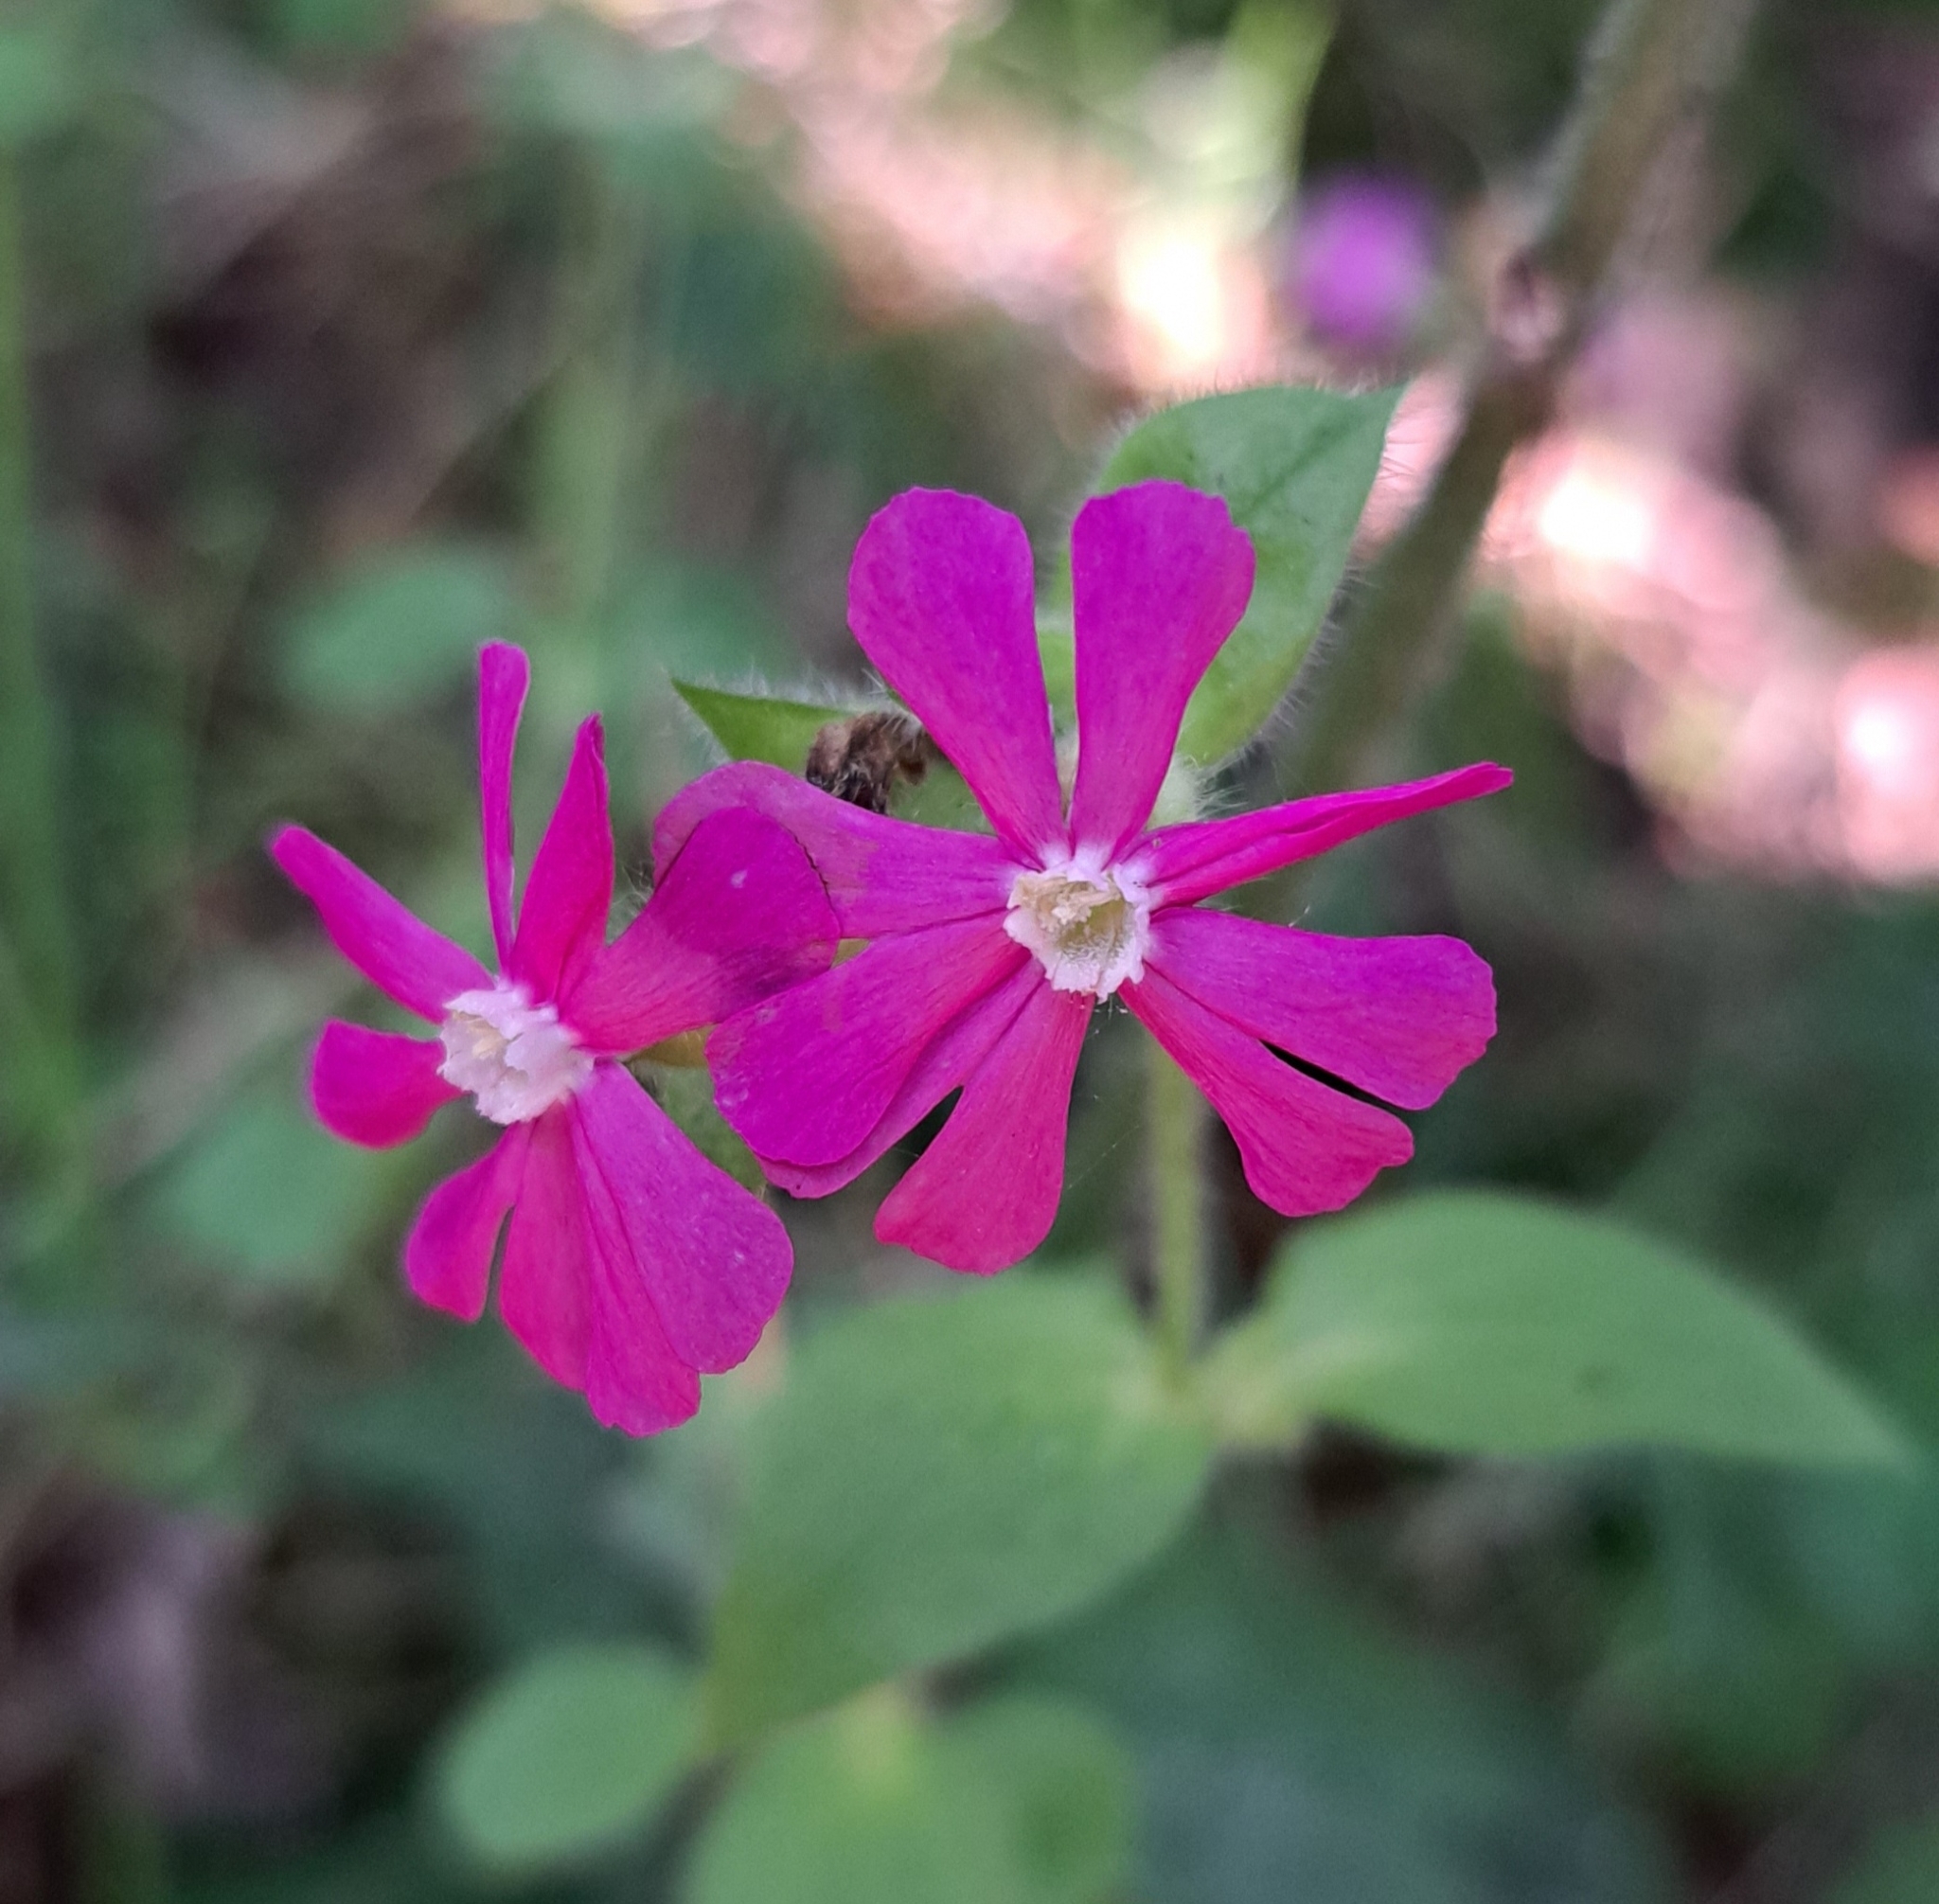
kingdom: Plantae
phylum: Tracheophyta
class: Magnoliopsida
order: Caryophyllales
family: Caryophyllaceae
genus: Silene
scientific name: Silene dioica
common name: Red campion
